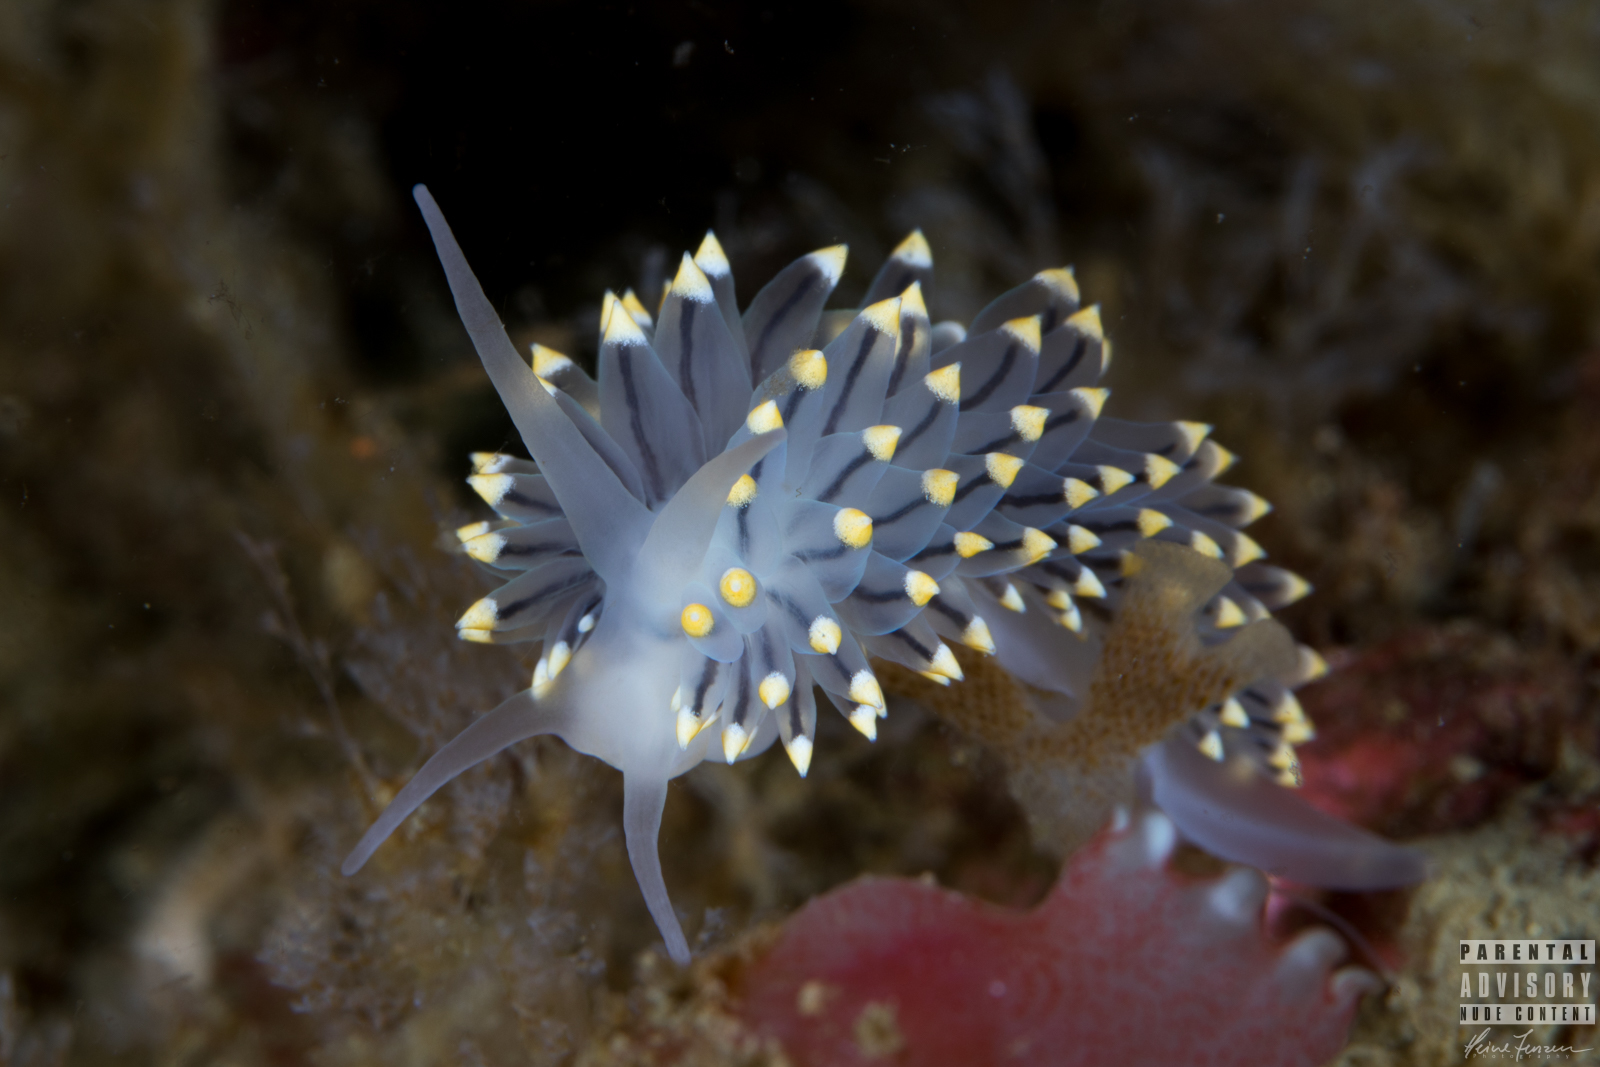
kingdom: Animalia
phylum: Mollusca
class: Gastropoda
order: Nudibranchia
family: Eubranchidae
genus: Eubranchus
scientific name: Eubranchus tricolor
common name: Painted balloon aeolis
